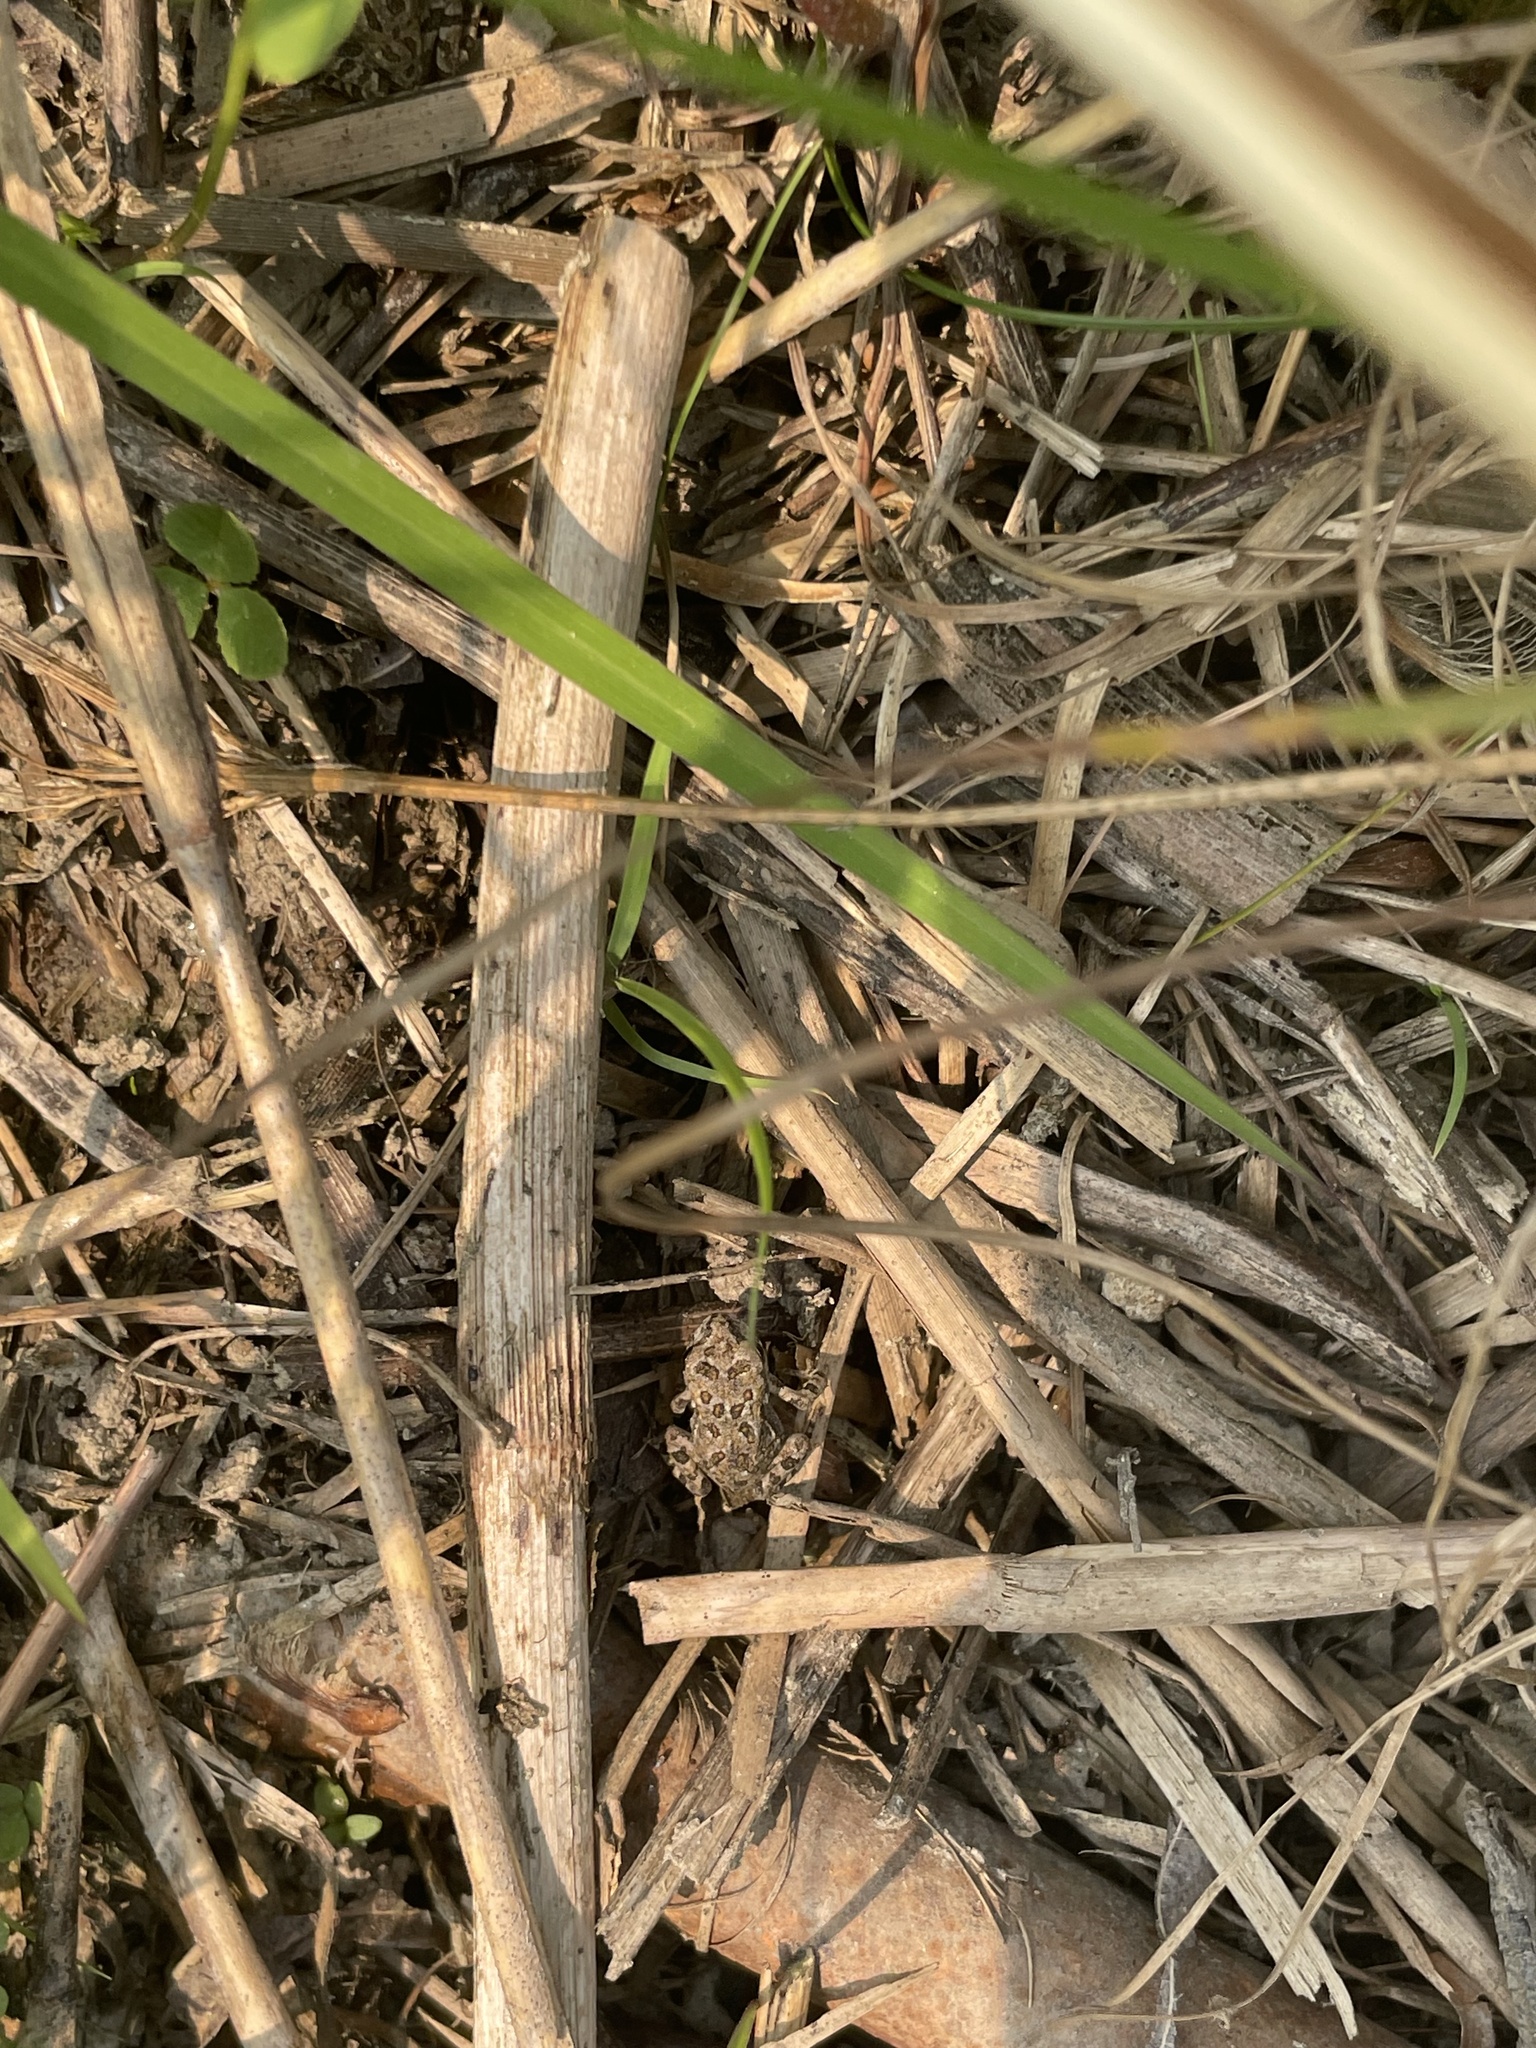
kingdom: Animalia
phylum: Chordata
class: Amphibia
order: Anura
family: Bufonidae
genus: Anaxyrus
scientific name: Anaxyrus fowleri
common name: Fowler's toad
